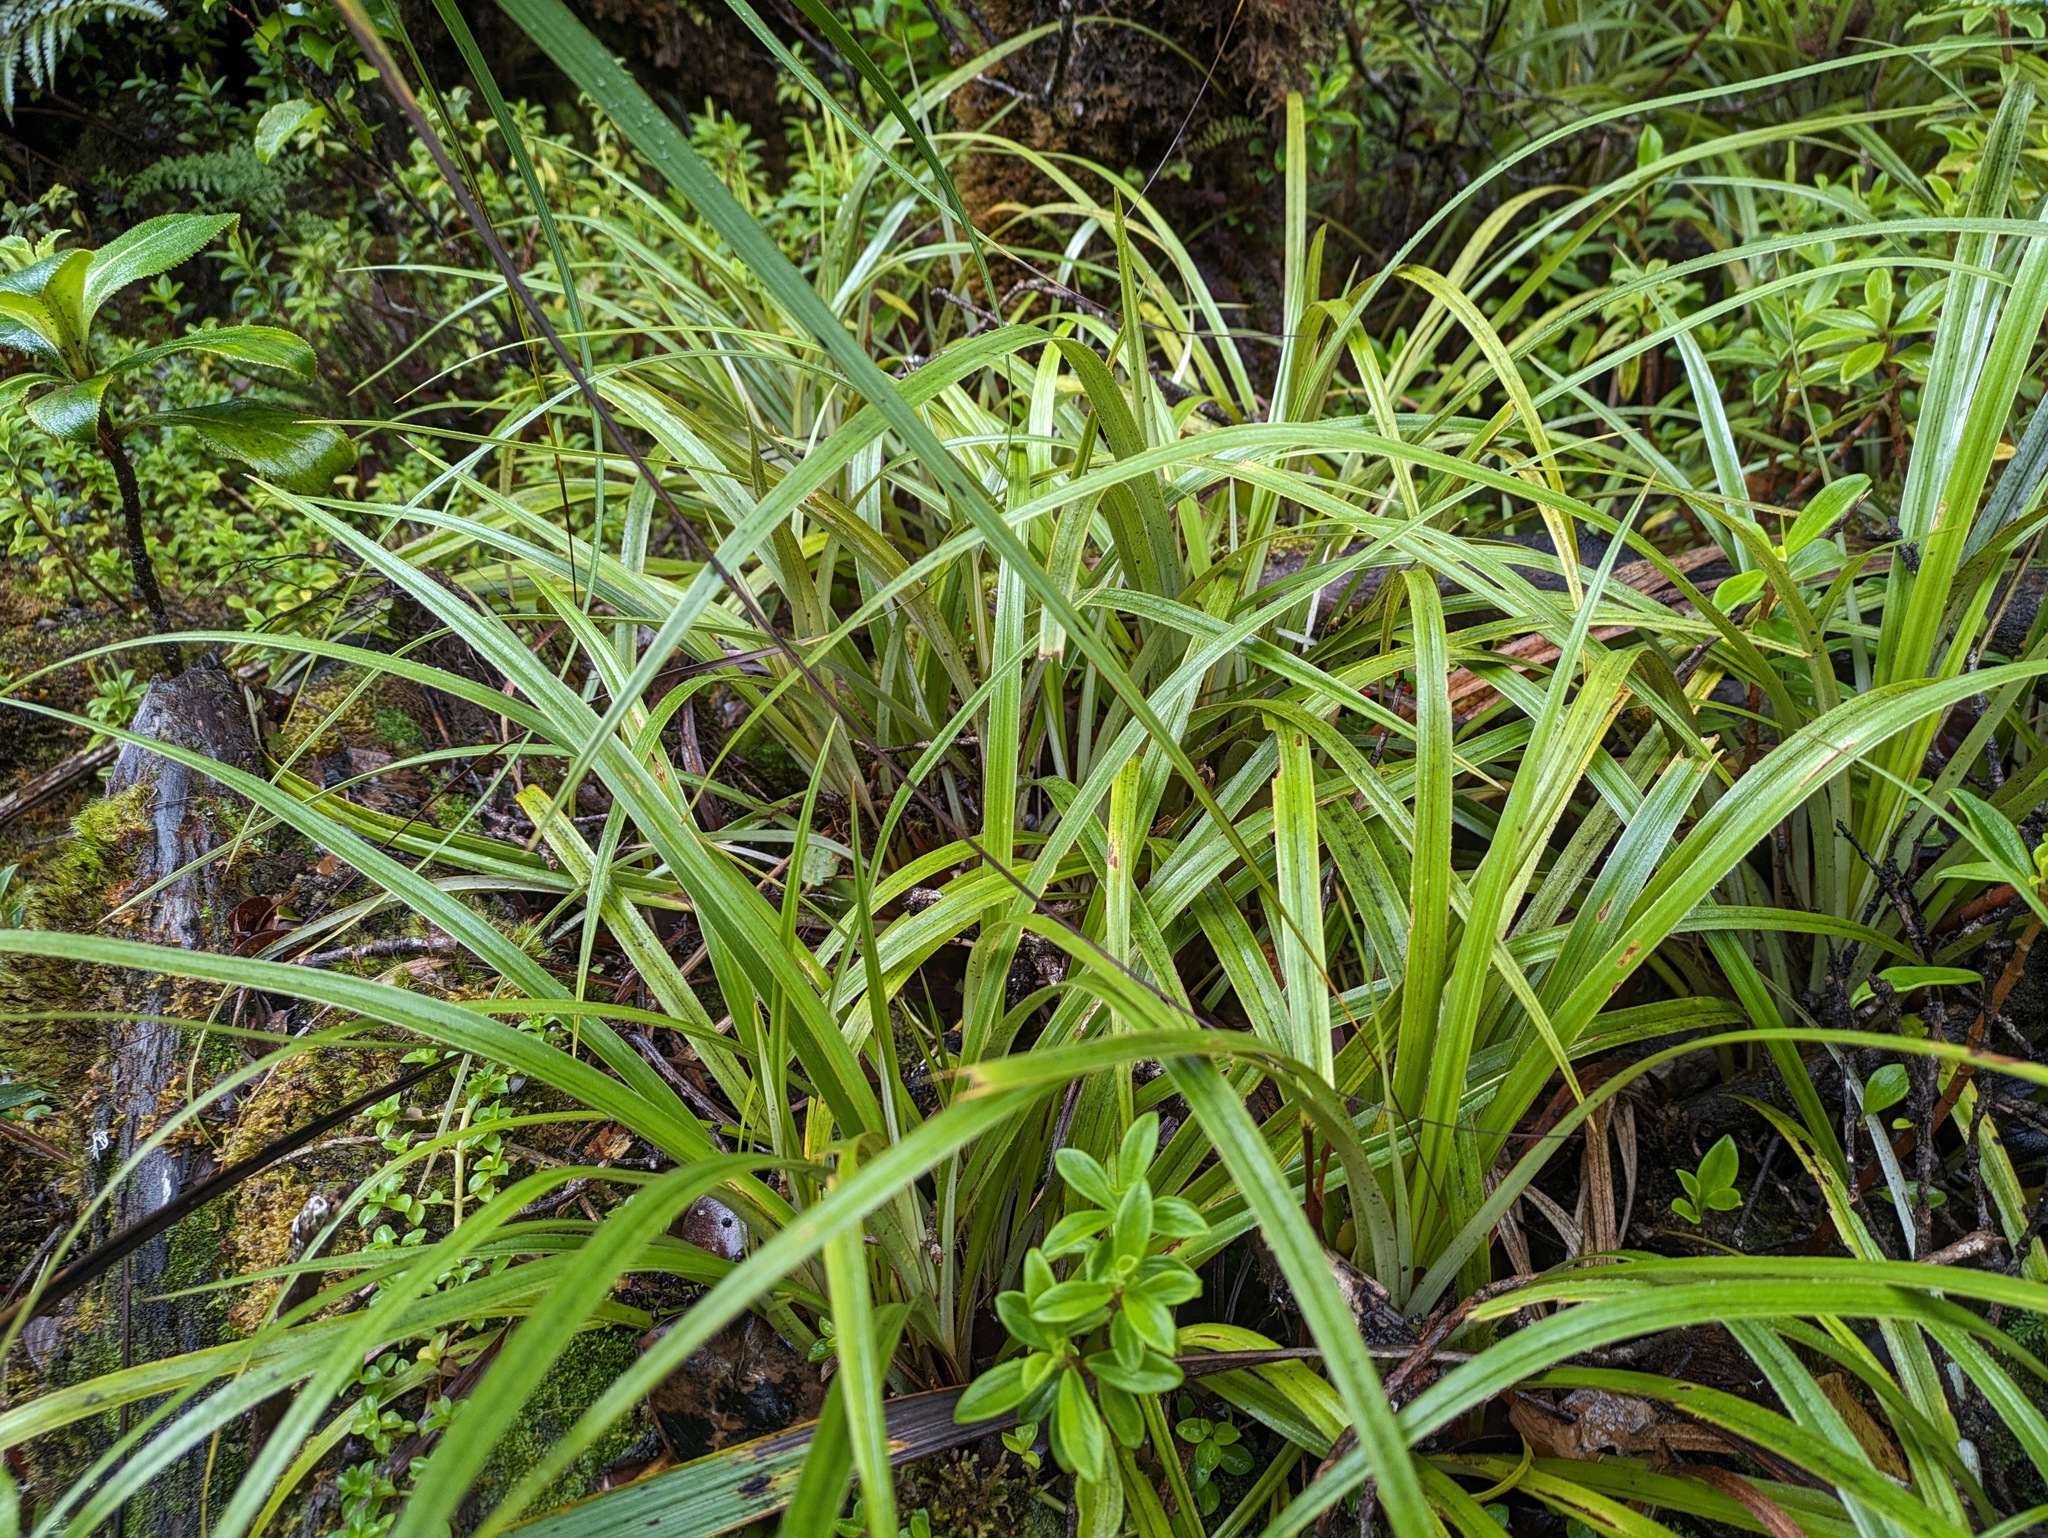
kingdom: Plantae
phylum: Tracheophyta
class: Liliopsida
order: Asparagales
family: Asteliaceae
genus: Astelia
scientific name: Astelia argyrocoma
